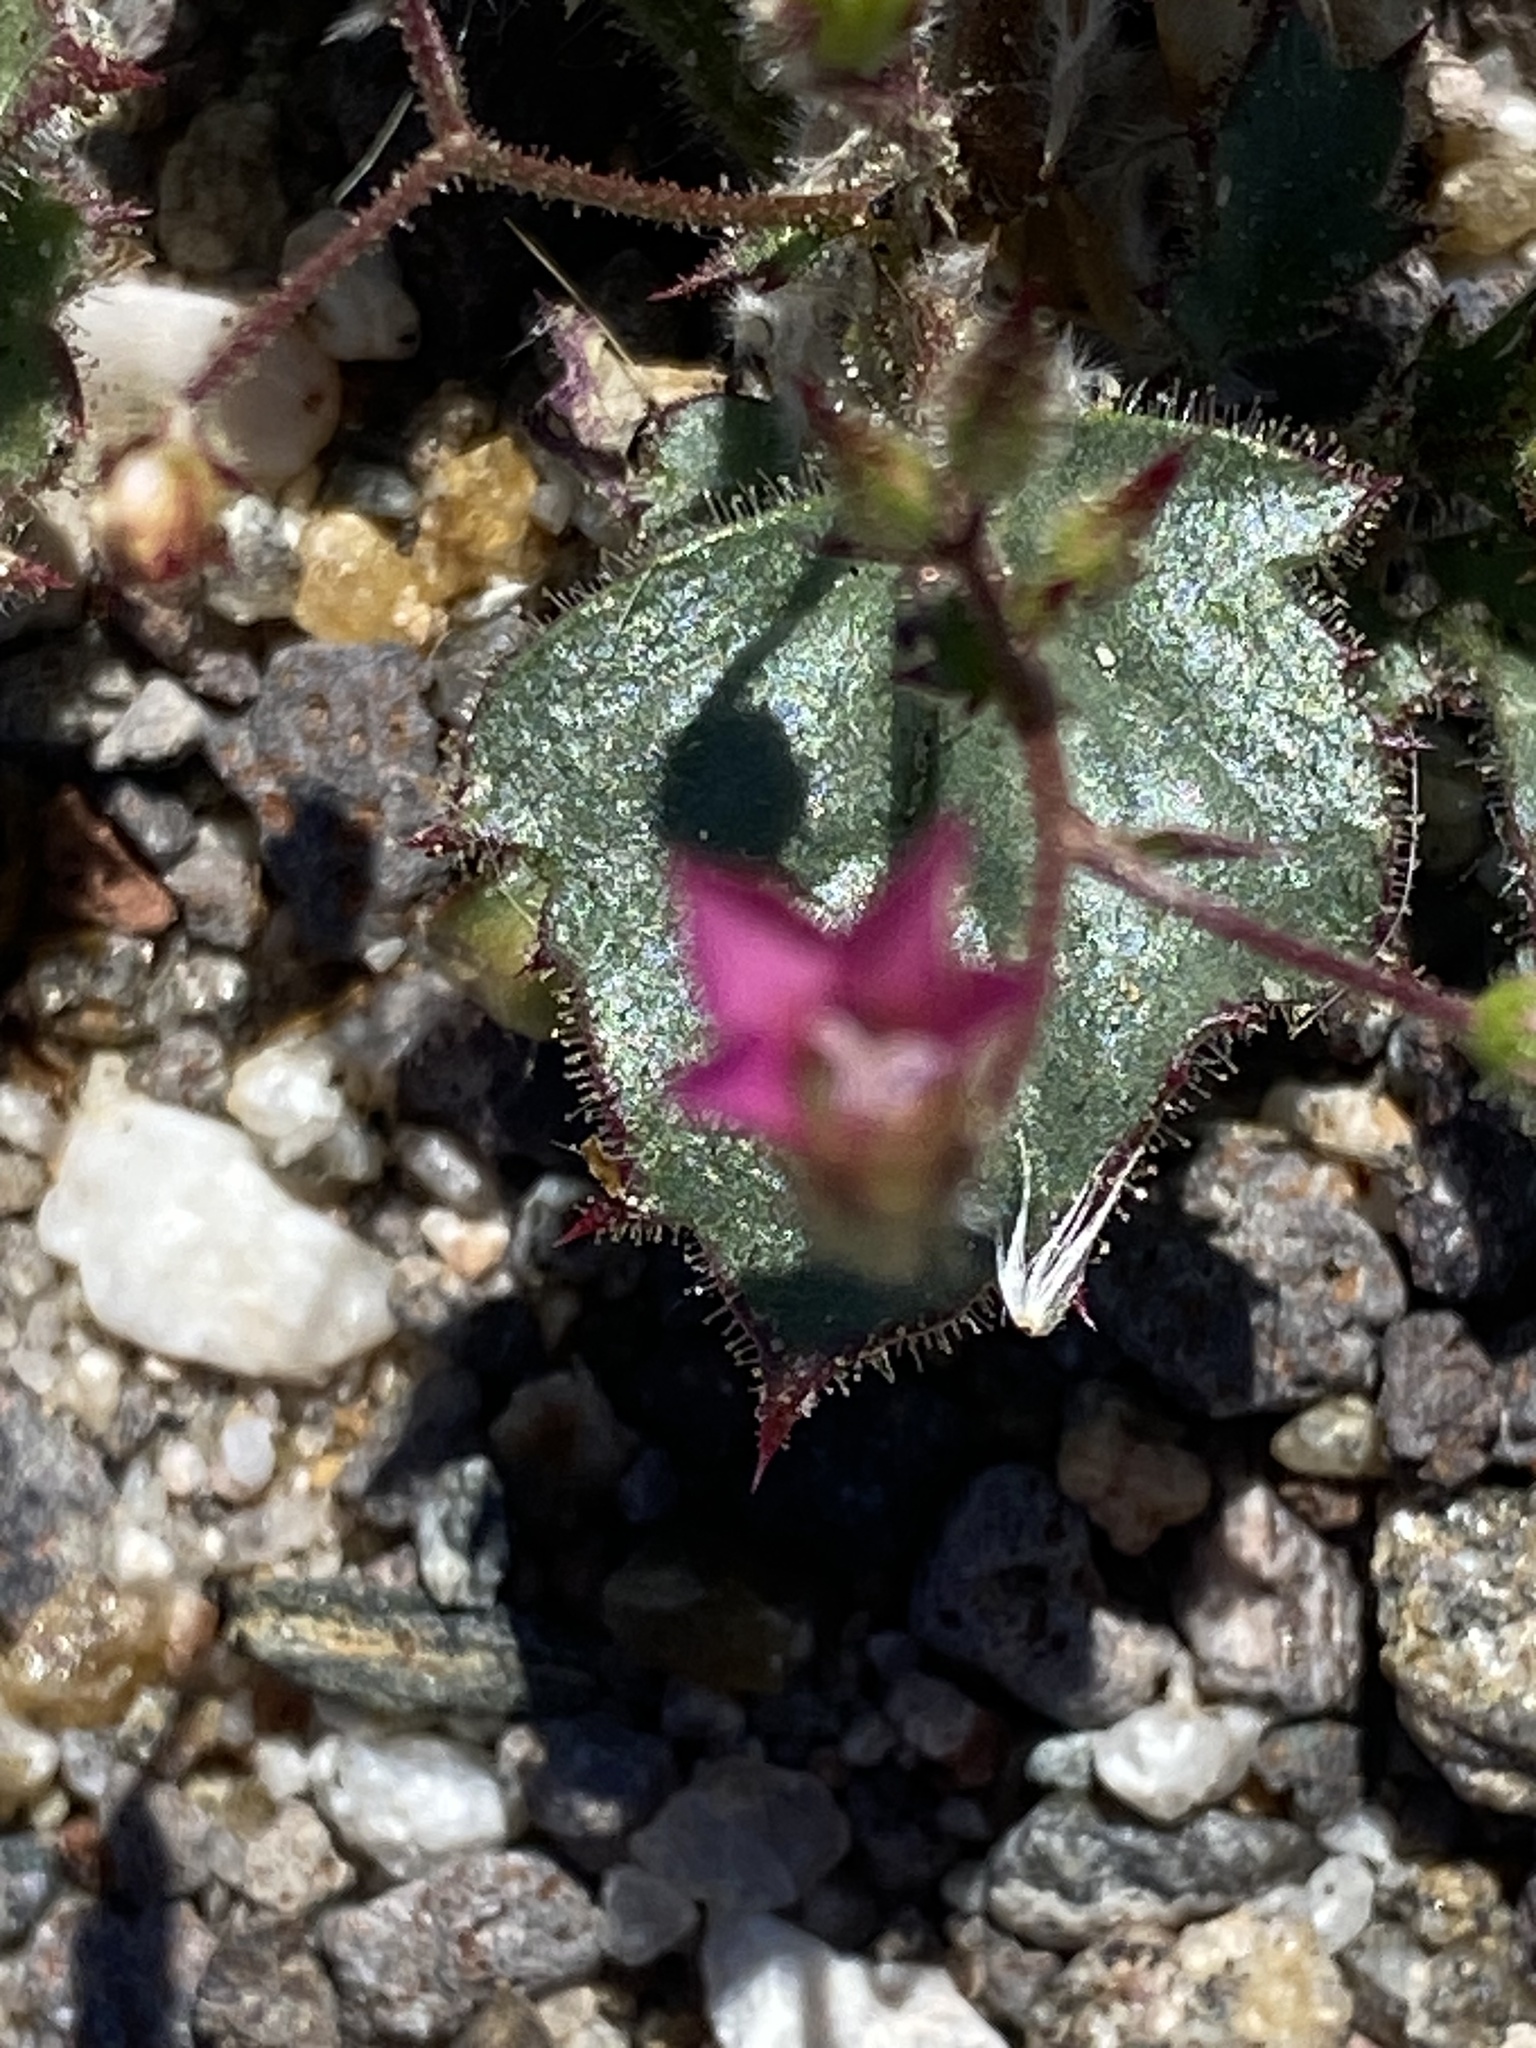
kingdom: Plantae
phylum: Tracheophyta
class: Magnoliopsida
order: Ericales
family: Polemoniaceae
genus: Aliciella
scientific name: Aliciella latifolia
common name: Broad-leaf gilia
